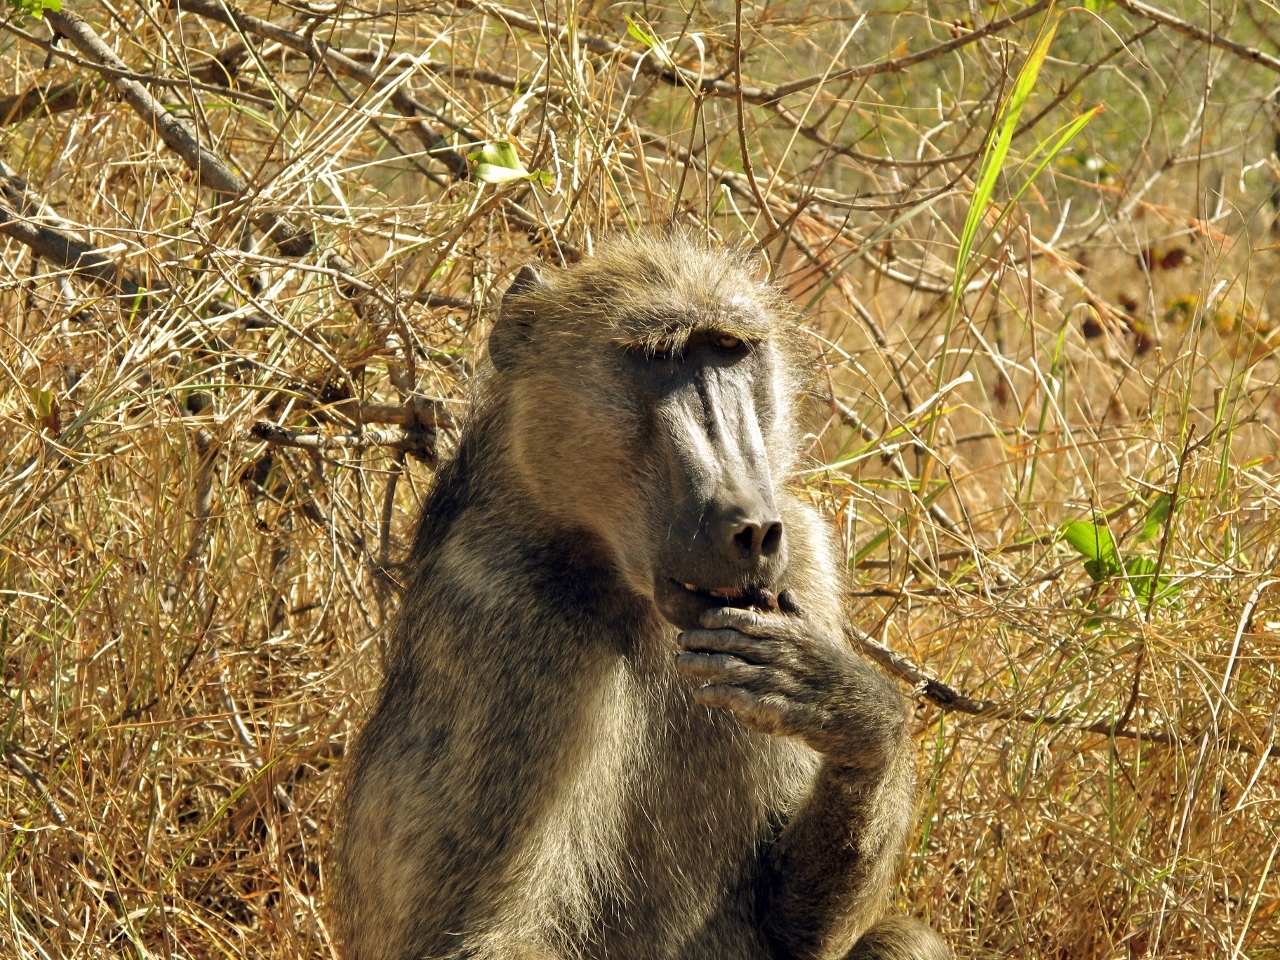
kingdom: Animalia
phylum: Chordata
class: Mammalia
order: Primates
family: Cercopithecidae
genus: Papio
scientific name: Papio ursinus
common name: Chacma baboon
